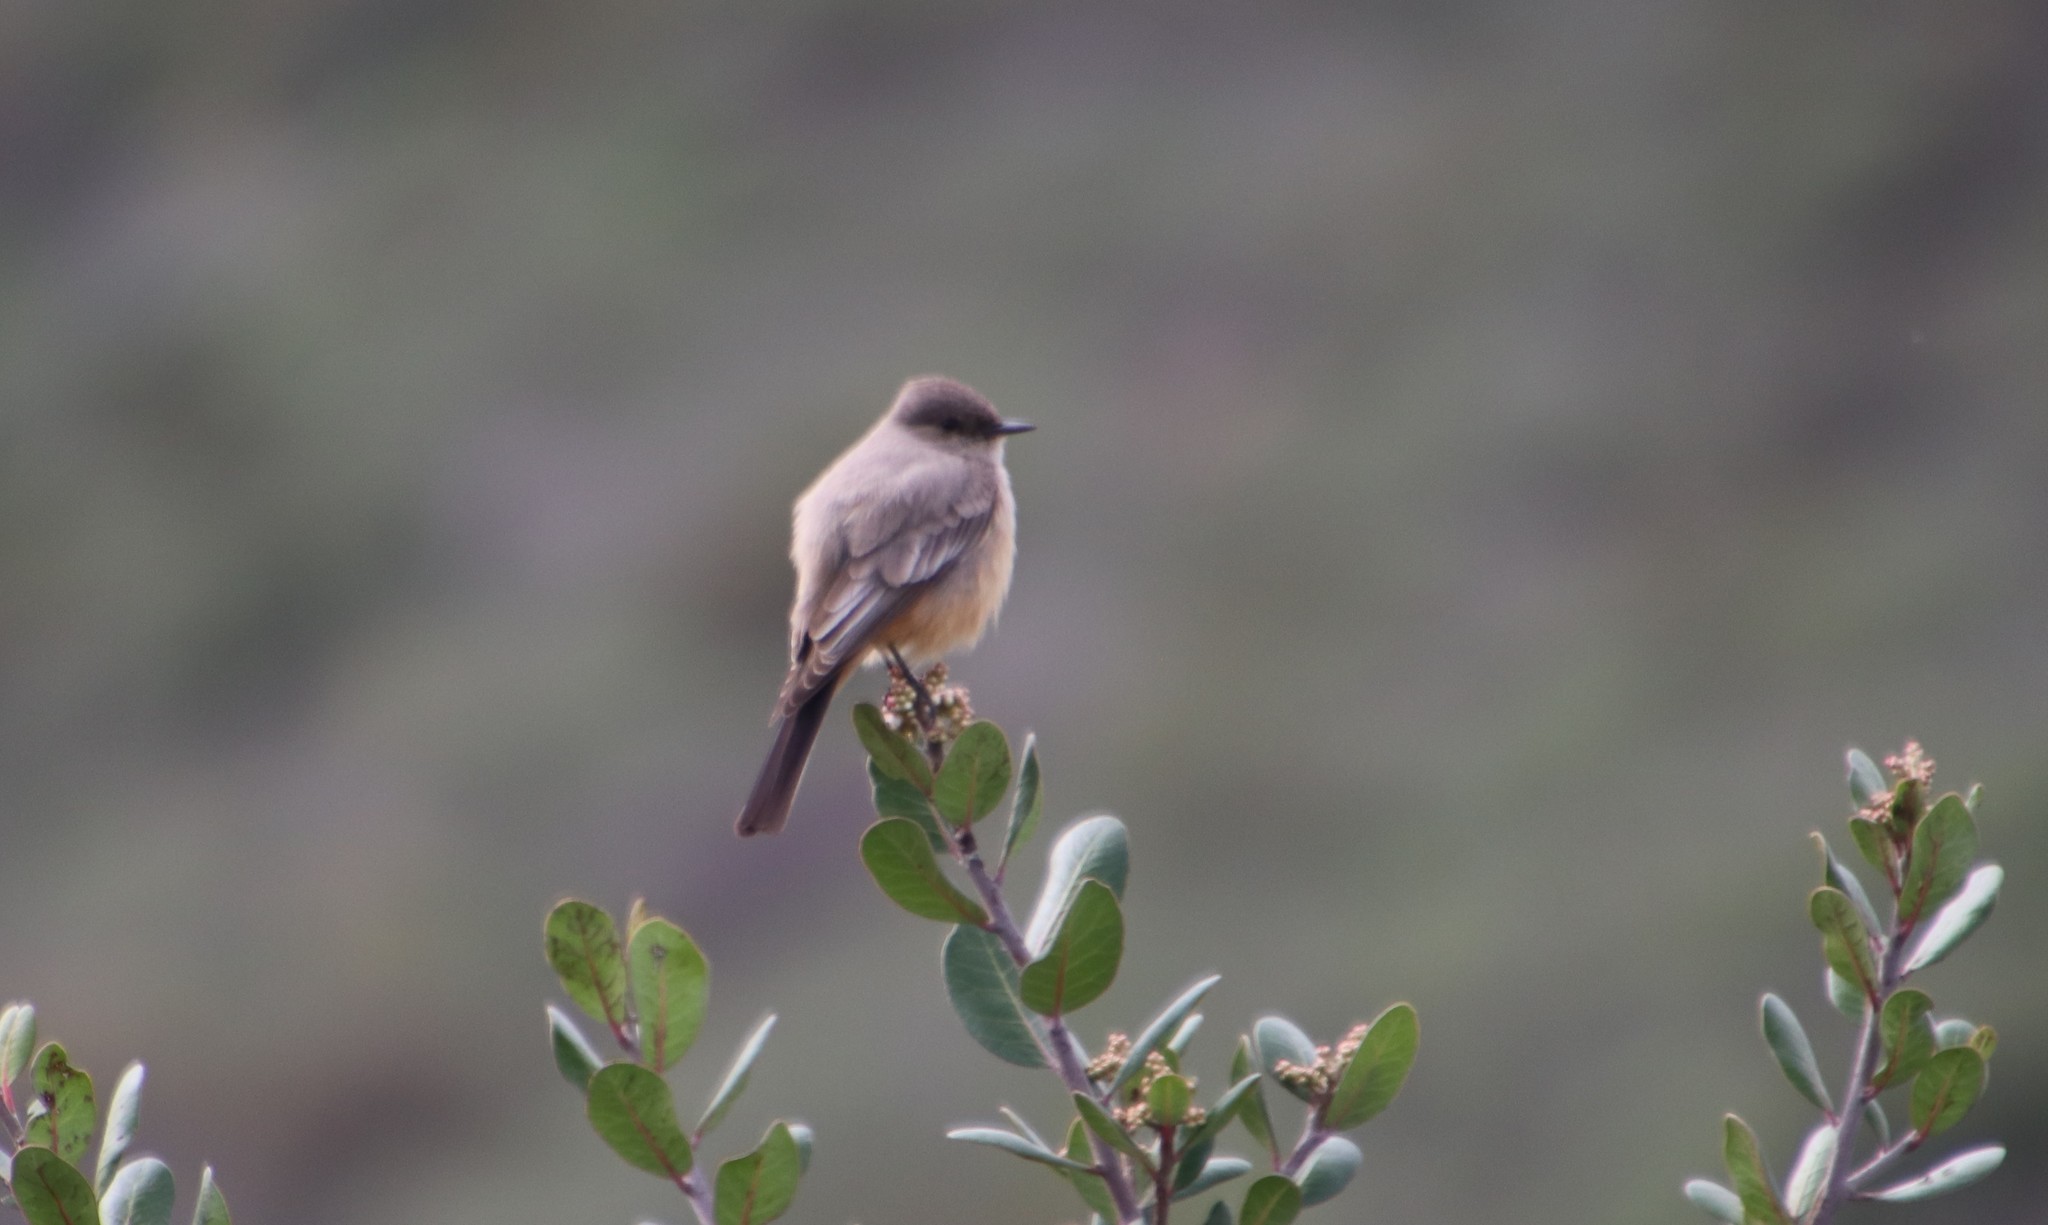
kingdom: Animalia
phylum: Chordata
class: Aves
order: Passeriformes
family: Tyrannidae
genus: Sayornis
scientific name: Sayornis saya
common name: Say's phoebe
